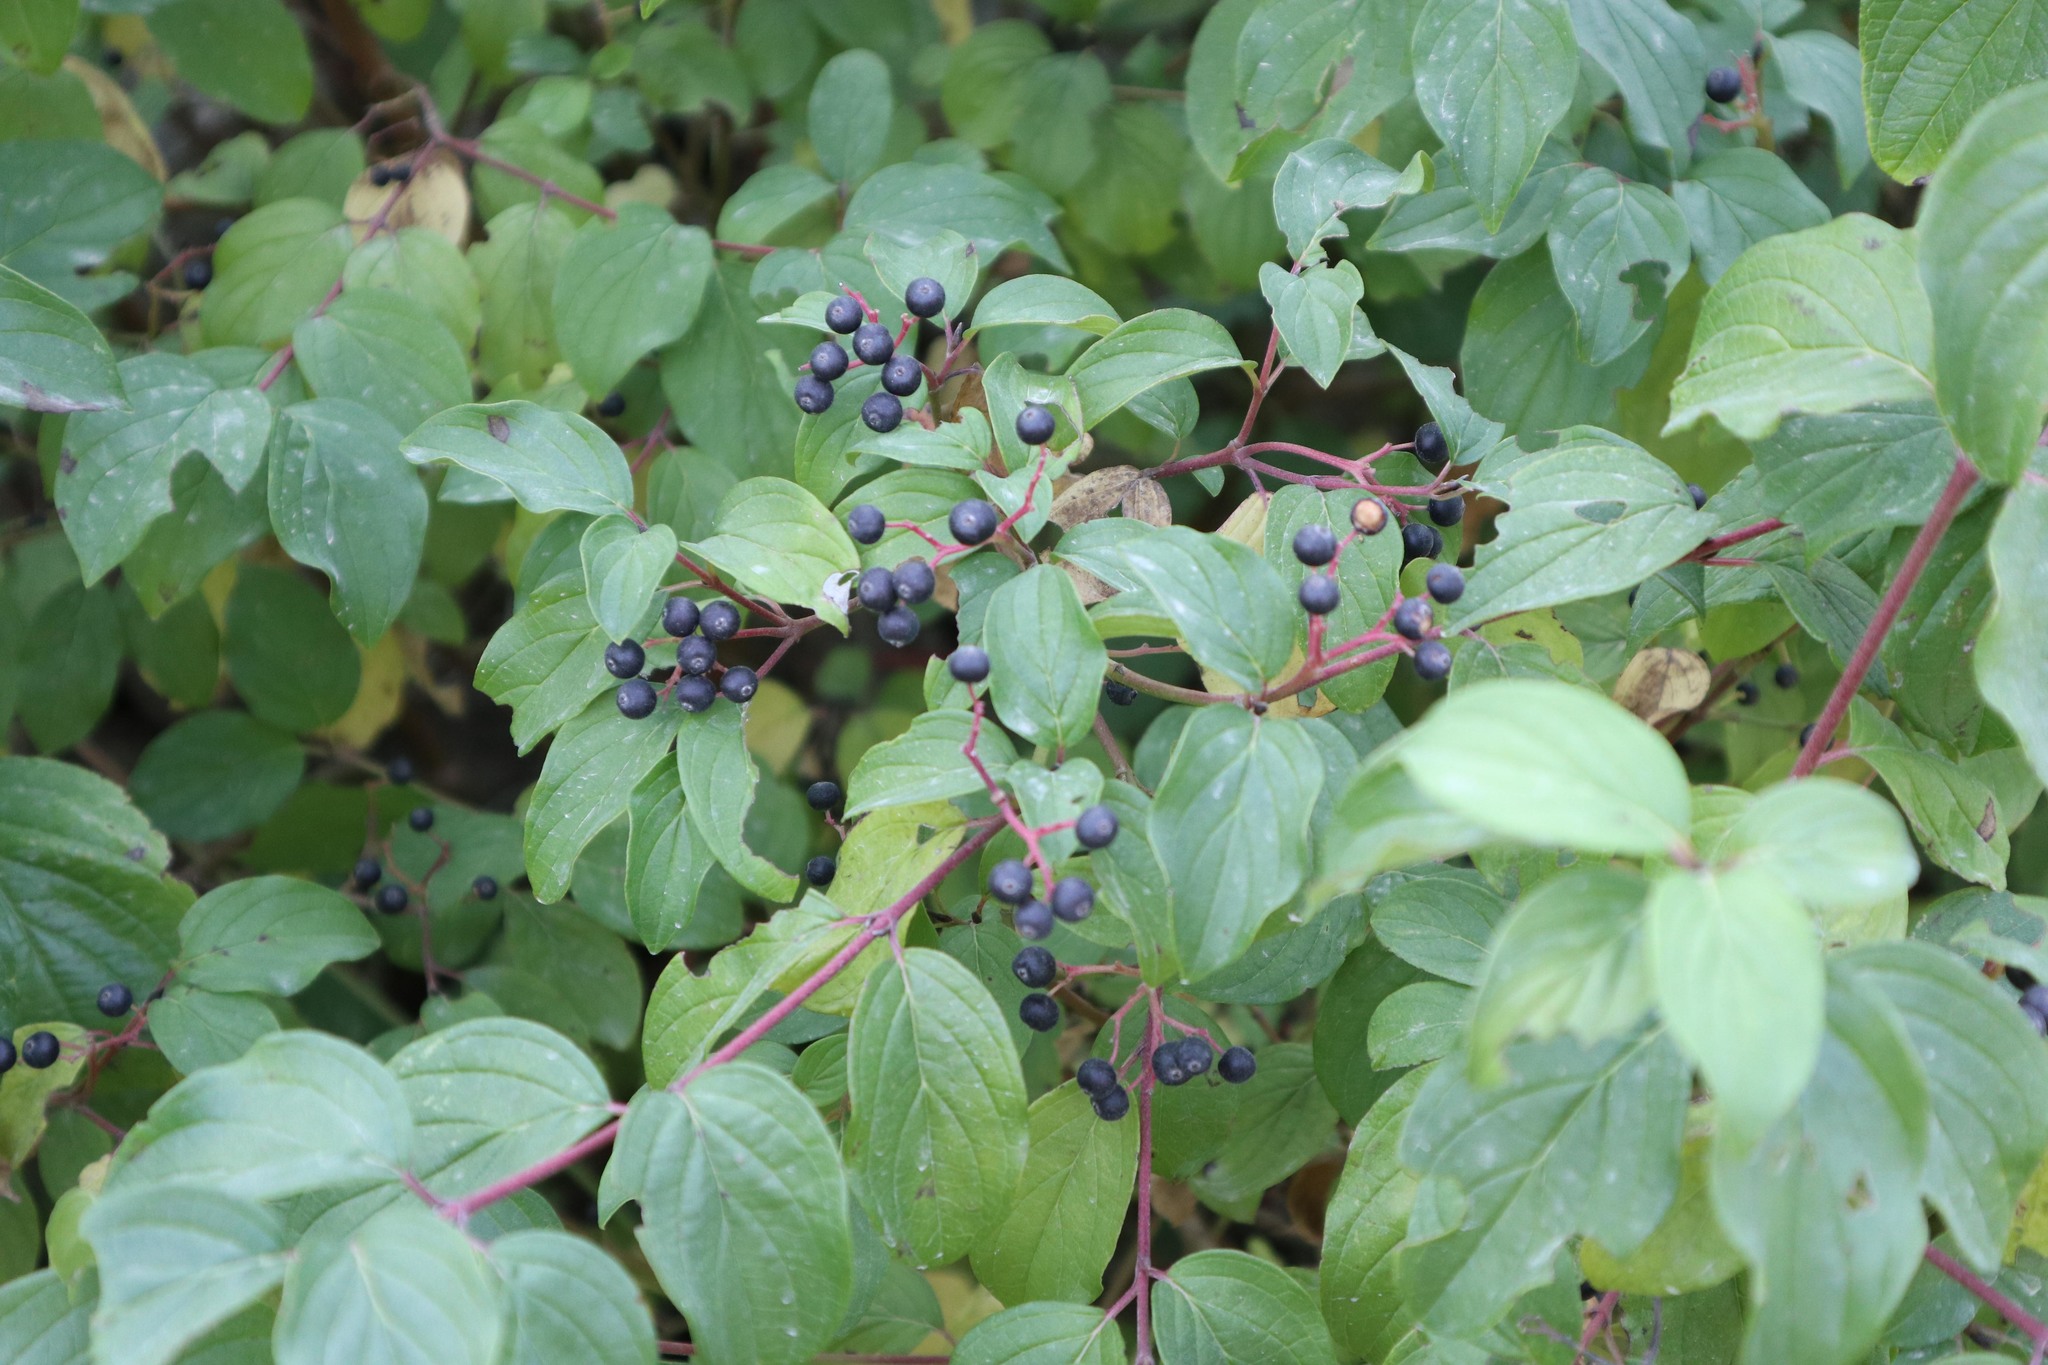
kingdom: Plantae
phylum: Tracheophyta
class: Magnoliopsida
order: Cornales
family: Cornaceae
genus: Cornus
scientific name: Cornus sanguinea
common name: Dogwood
